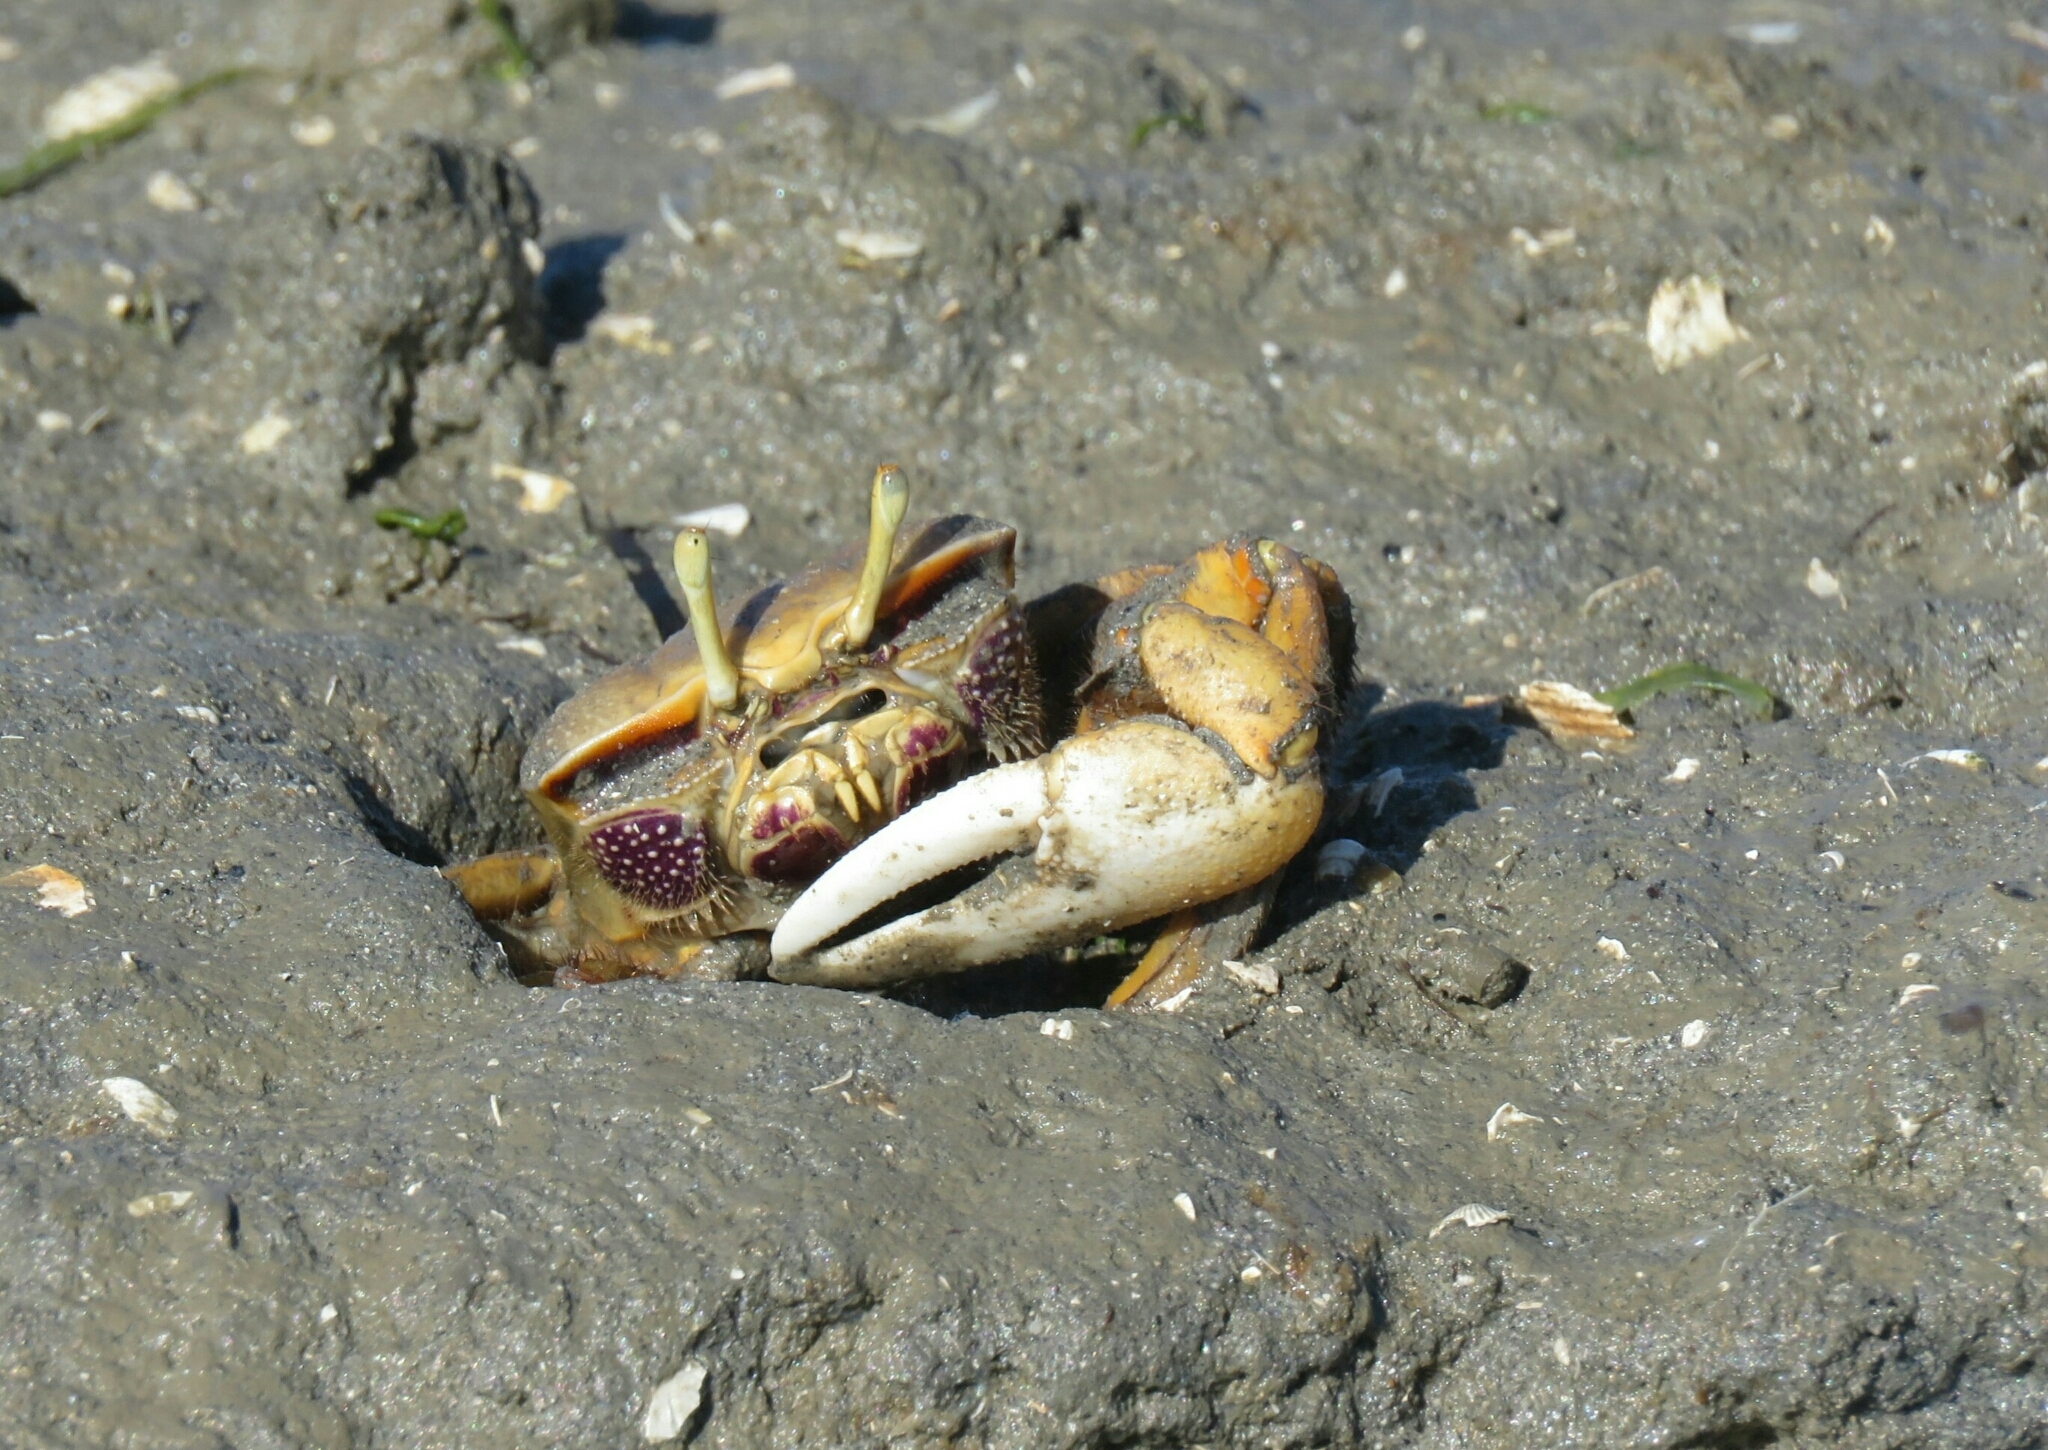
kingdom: Animalia
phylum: Arthropoda
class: Malacostraca
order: Decapoda
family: Ocypodidae
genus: Afruca
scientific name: Afruca tangeri
